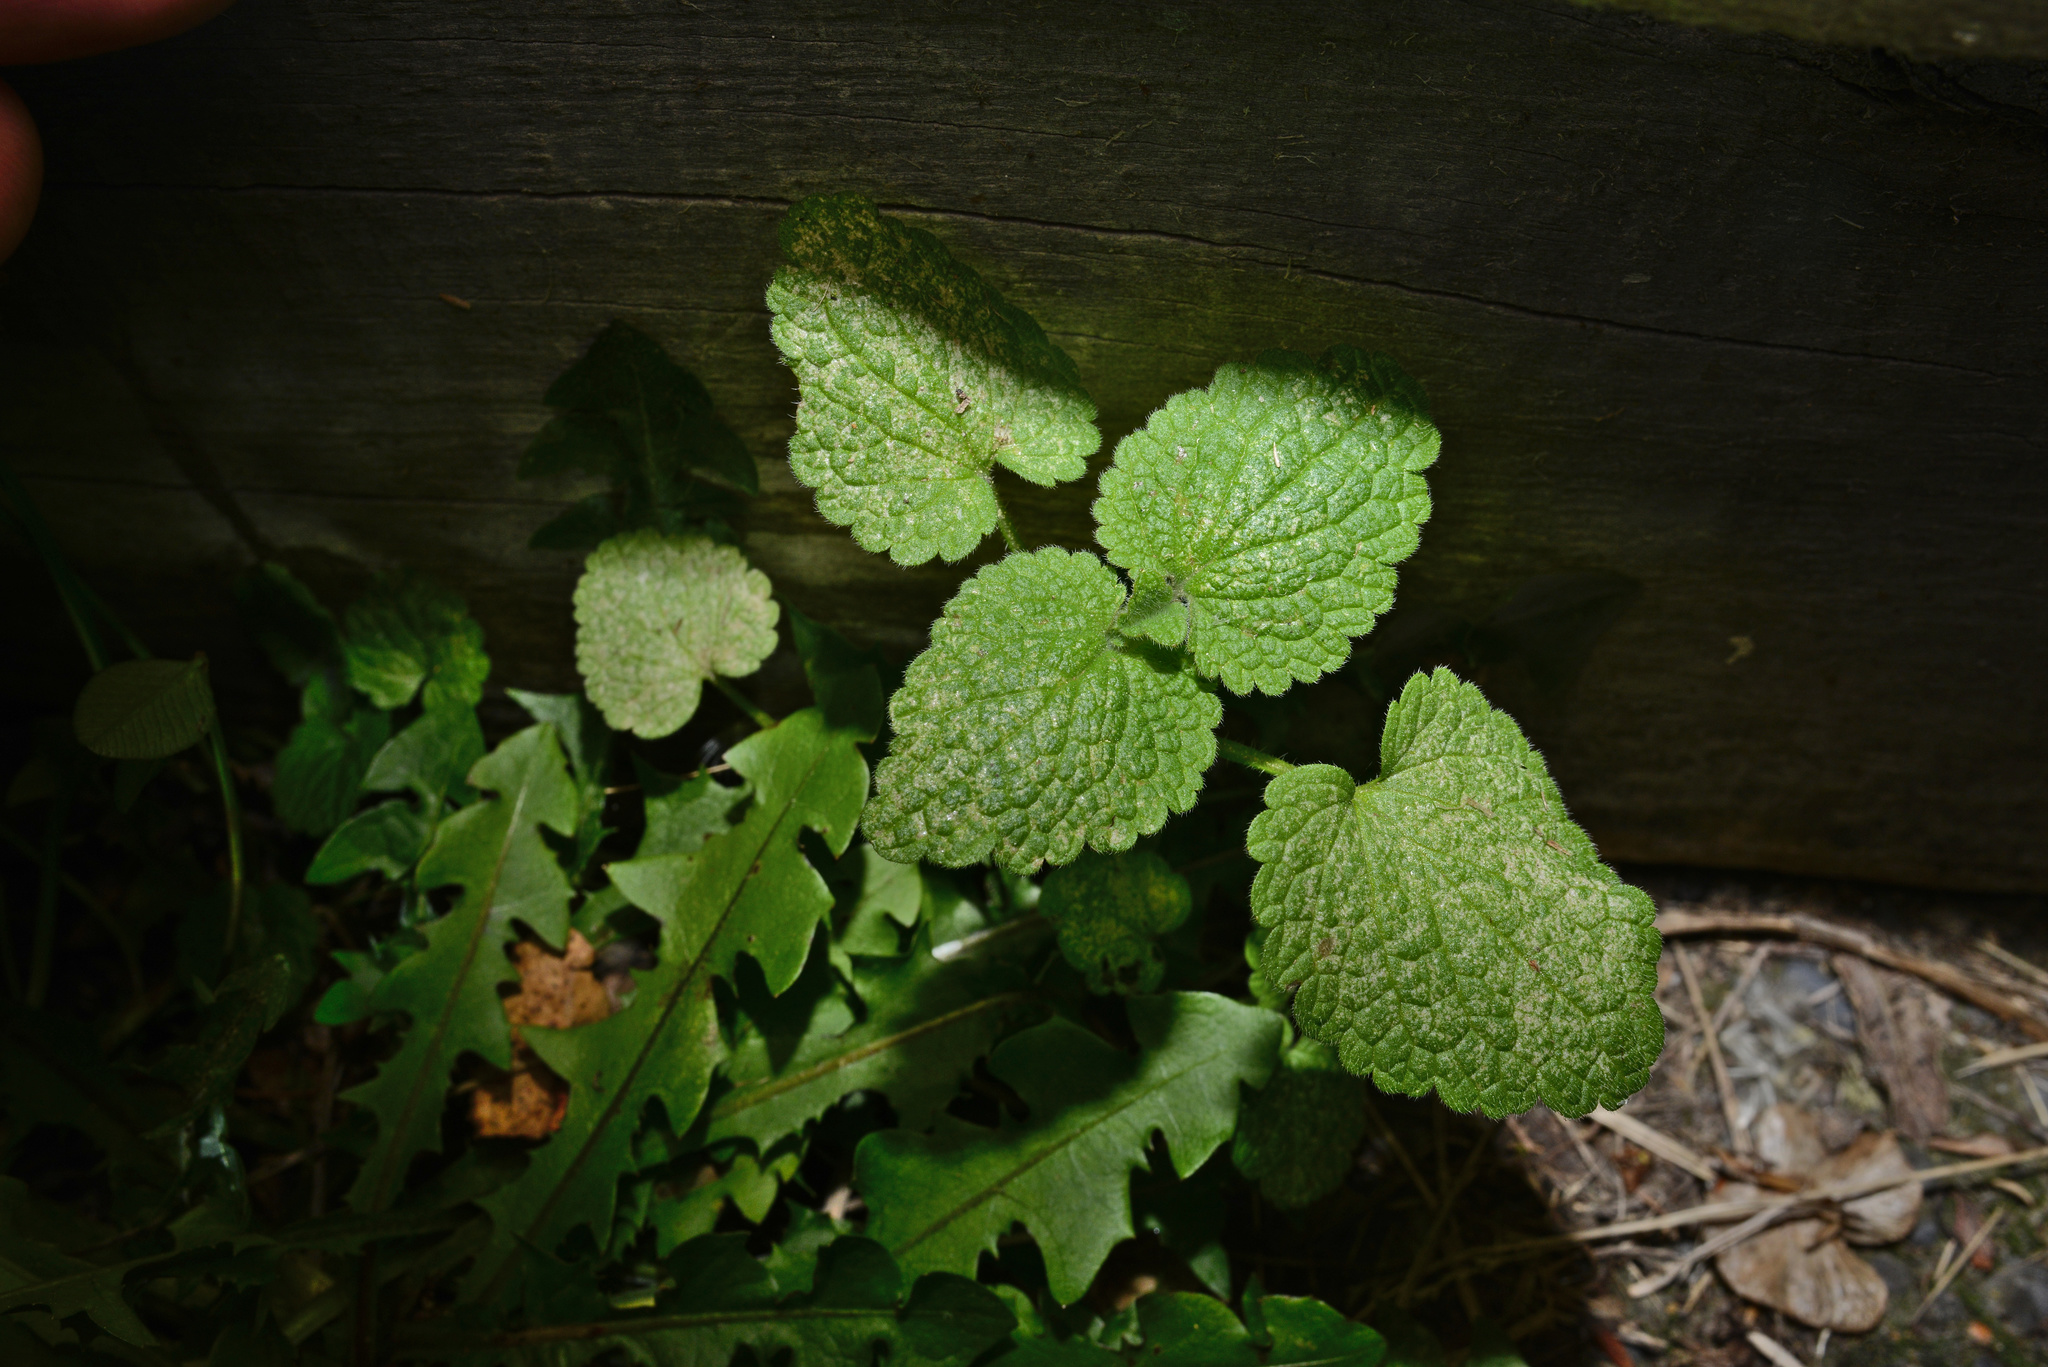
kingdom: Plantae
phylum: Tracheophyta
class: Magnoliopsida
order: Lamiales
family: Lamiaceae
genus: Lamium
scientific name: Lamium purpureum
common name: Red dead-nettle
